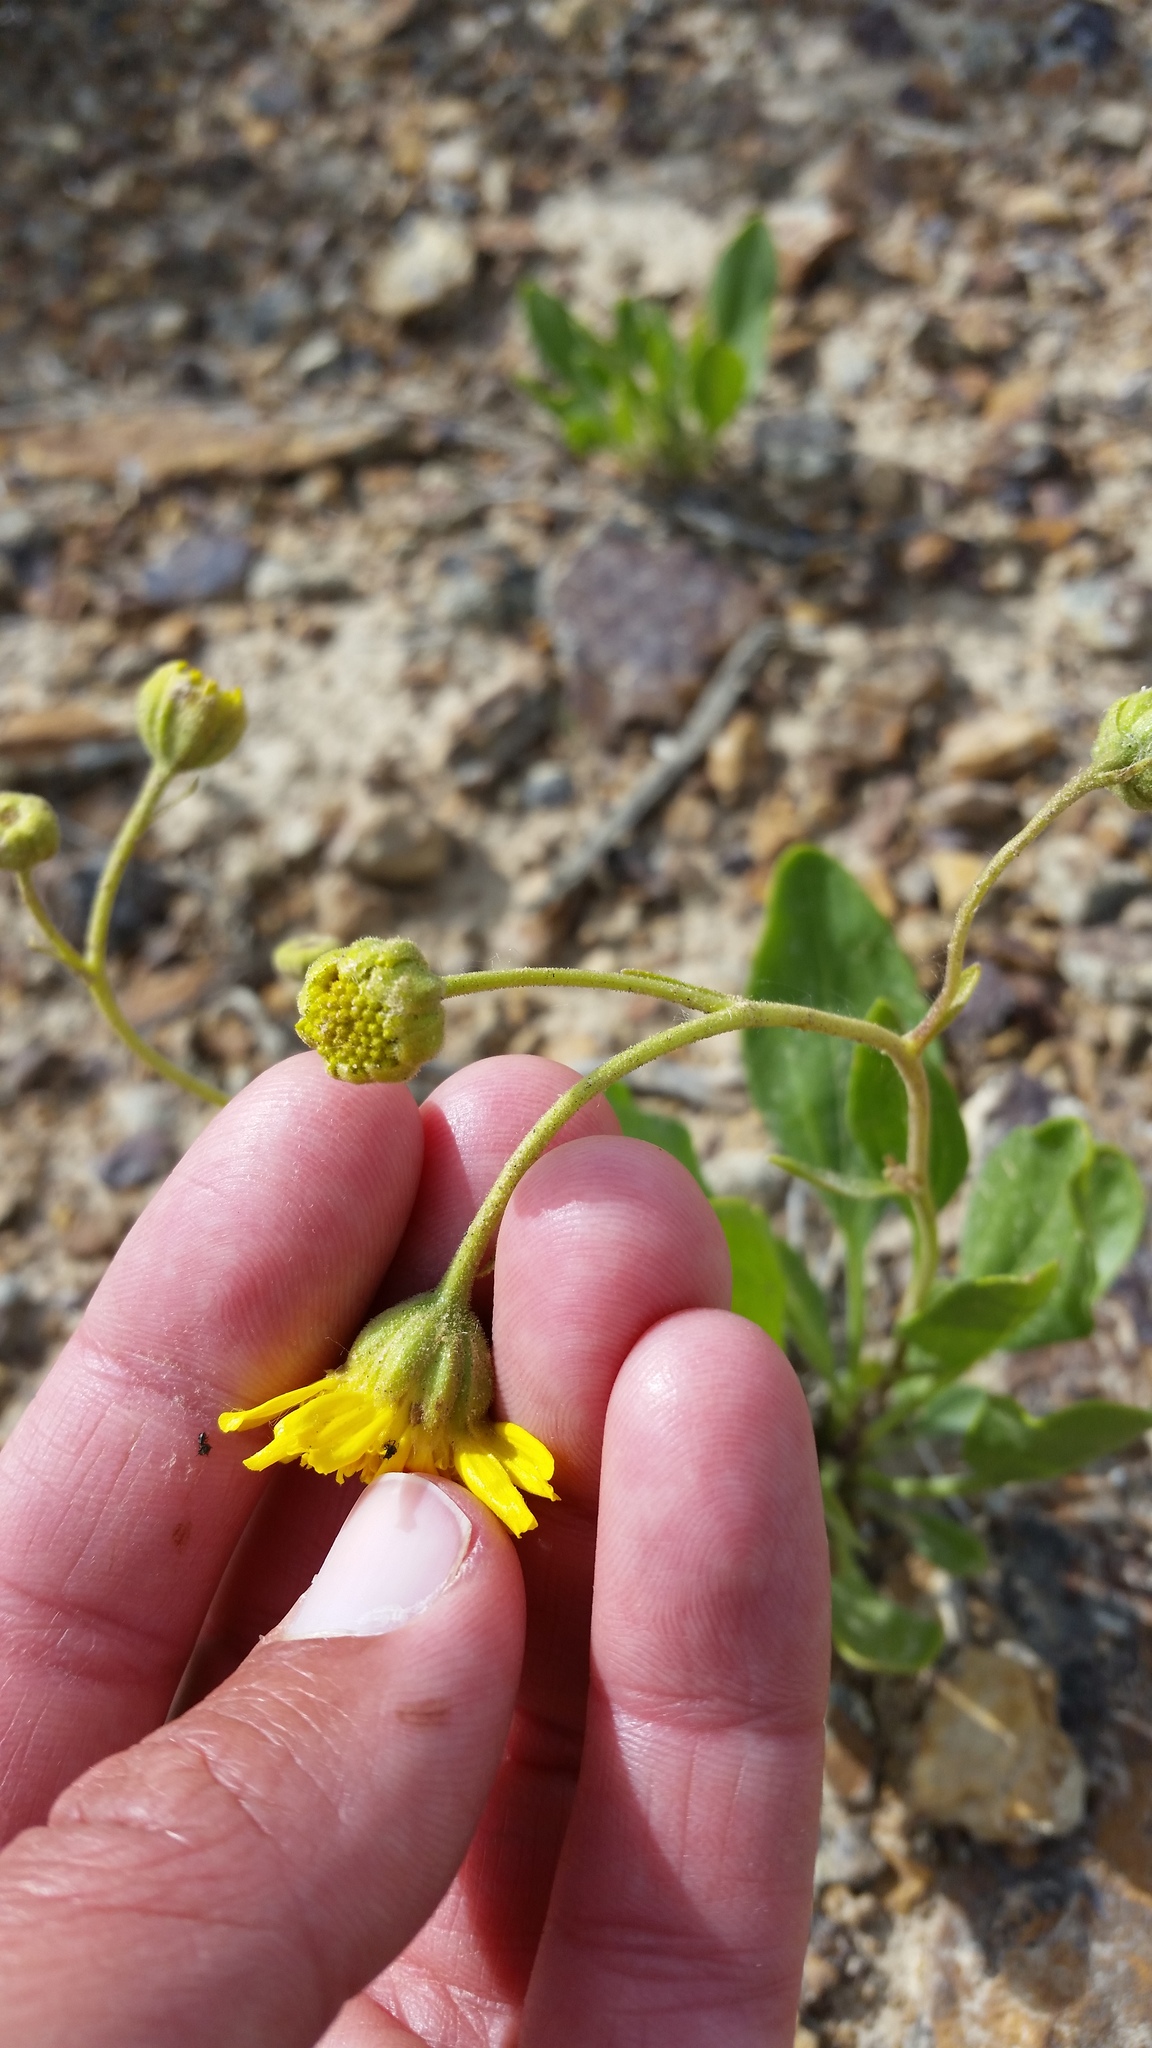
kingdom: Plantae
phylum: Tracheophyta
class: Magnoliopsida
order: Asterales
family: Asteraceae
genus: Platyschkuhria
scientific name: Platyschkuhria integrifolia
